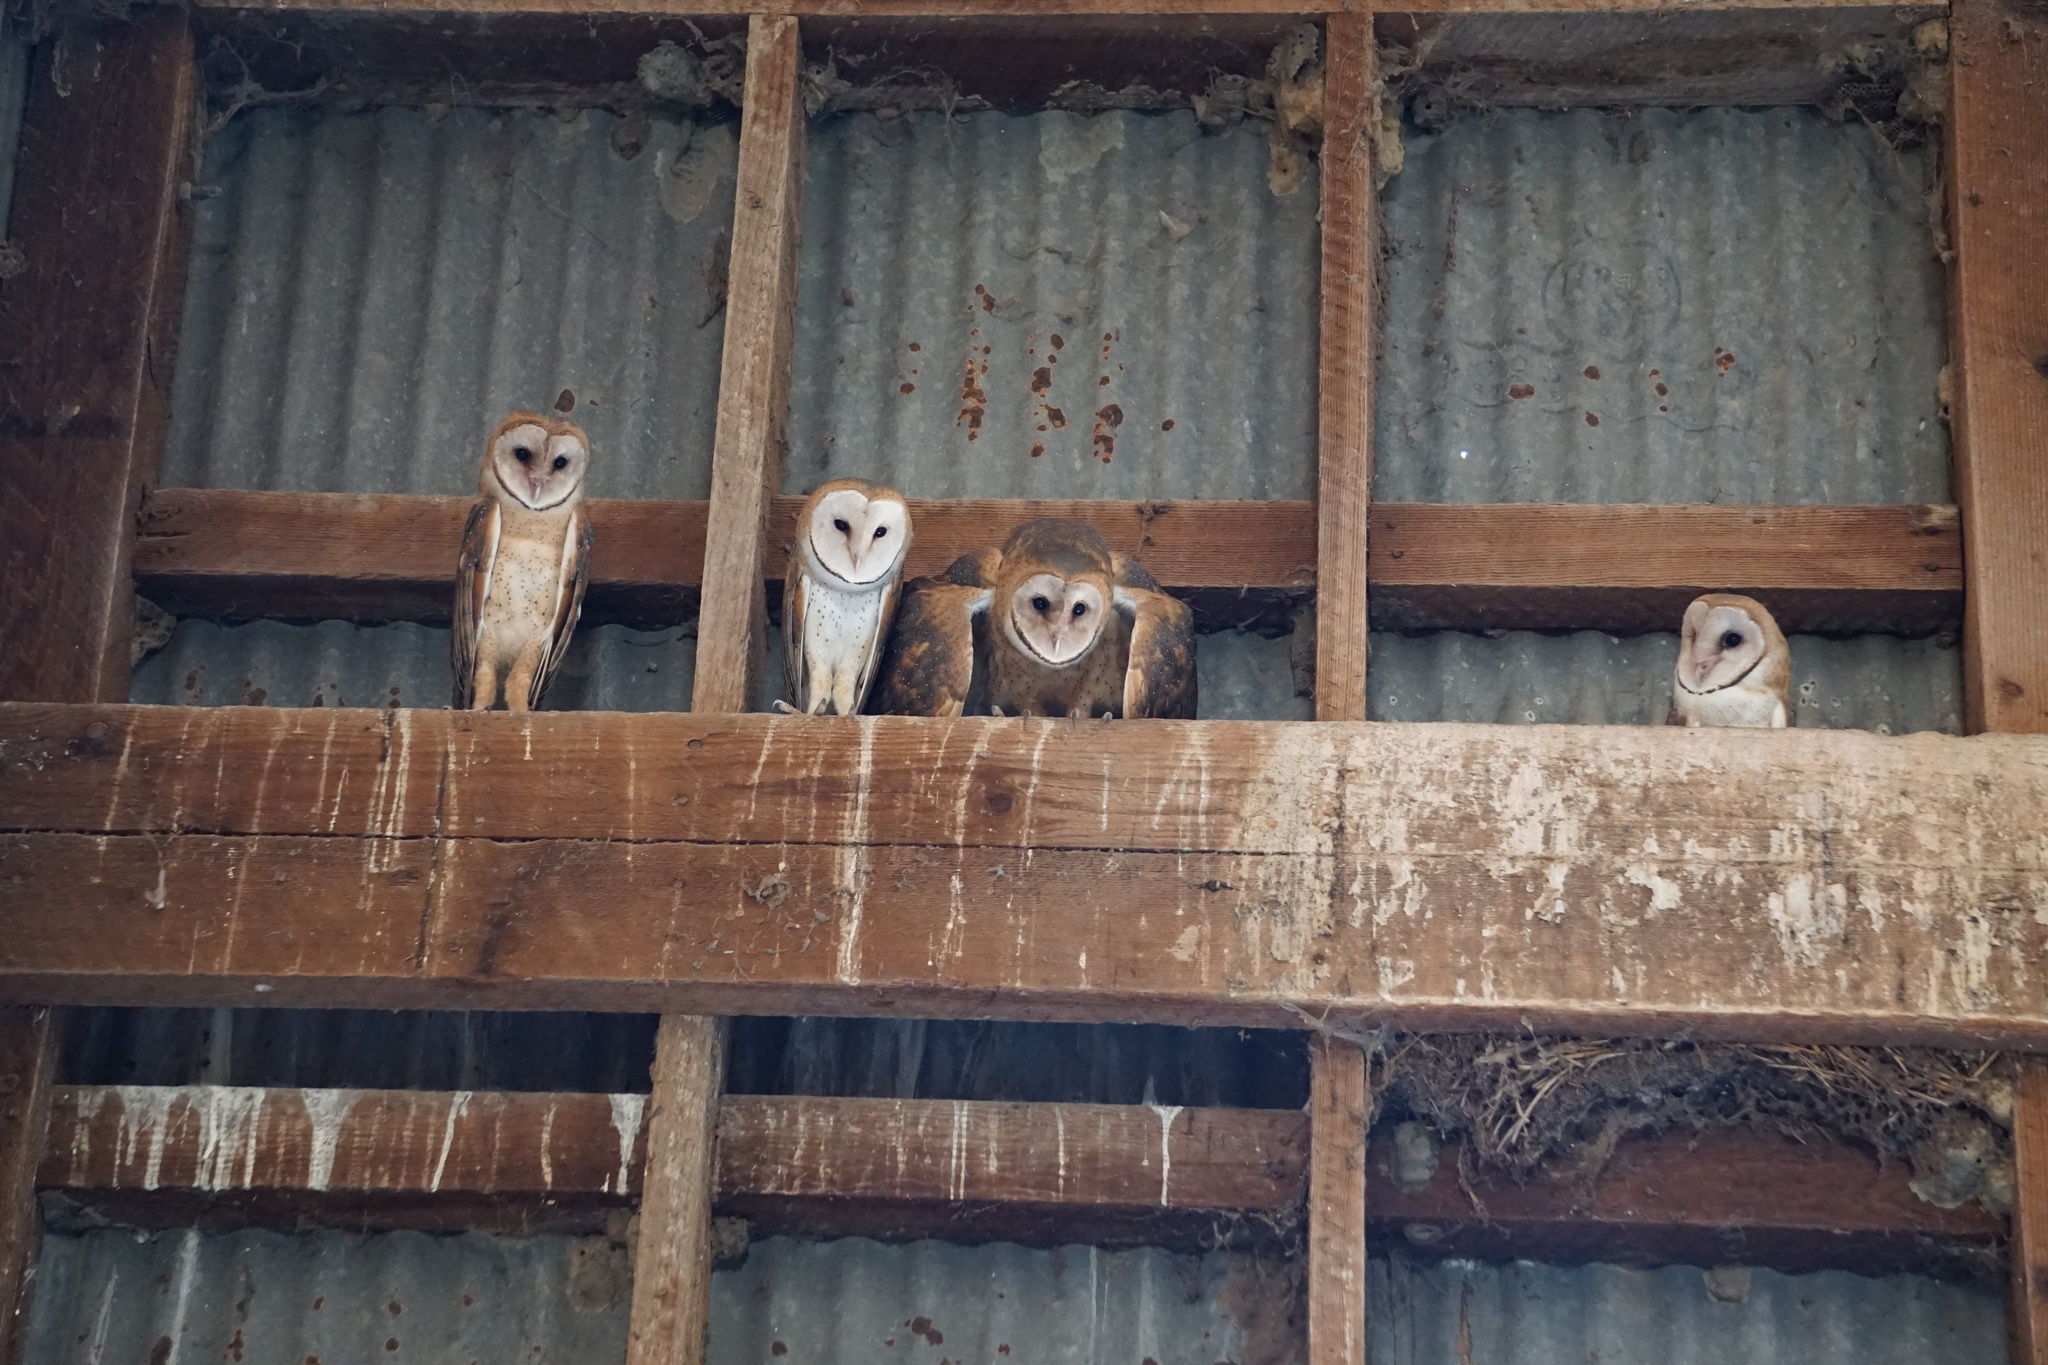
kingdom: Animalia
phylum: Chordata
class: Aves
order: Strigiformes
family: Tytonidae
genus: Tyto
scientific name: Tyto alba
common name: Barn owl
